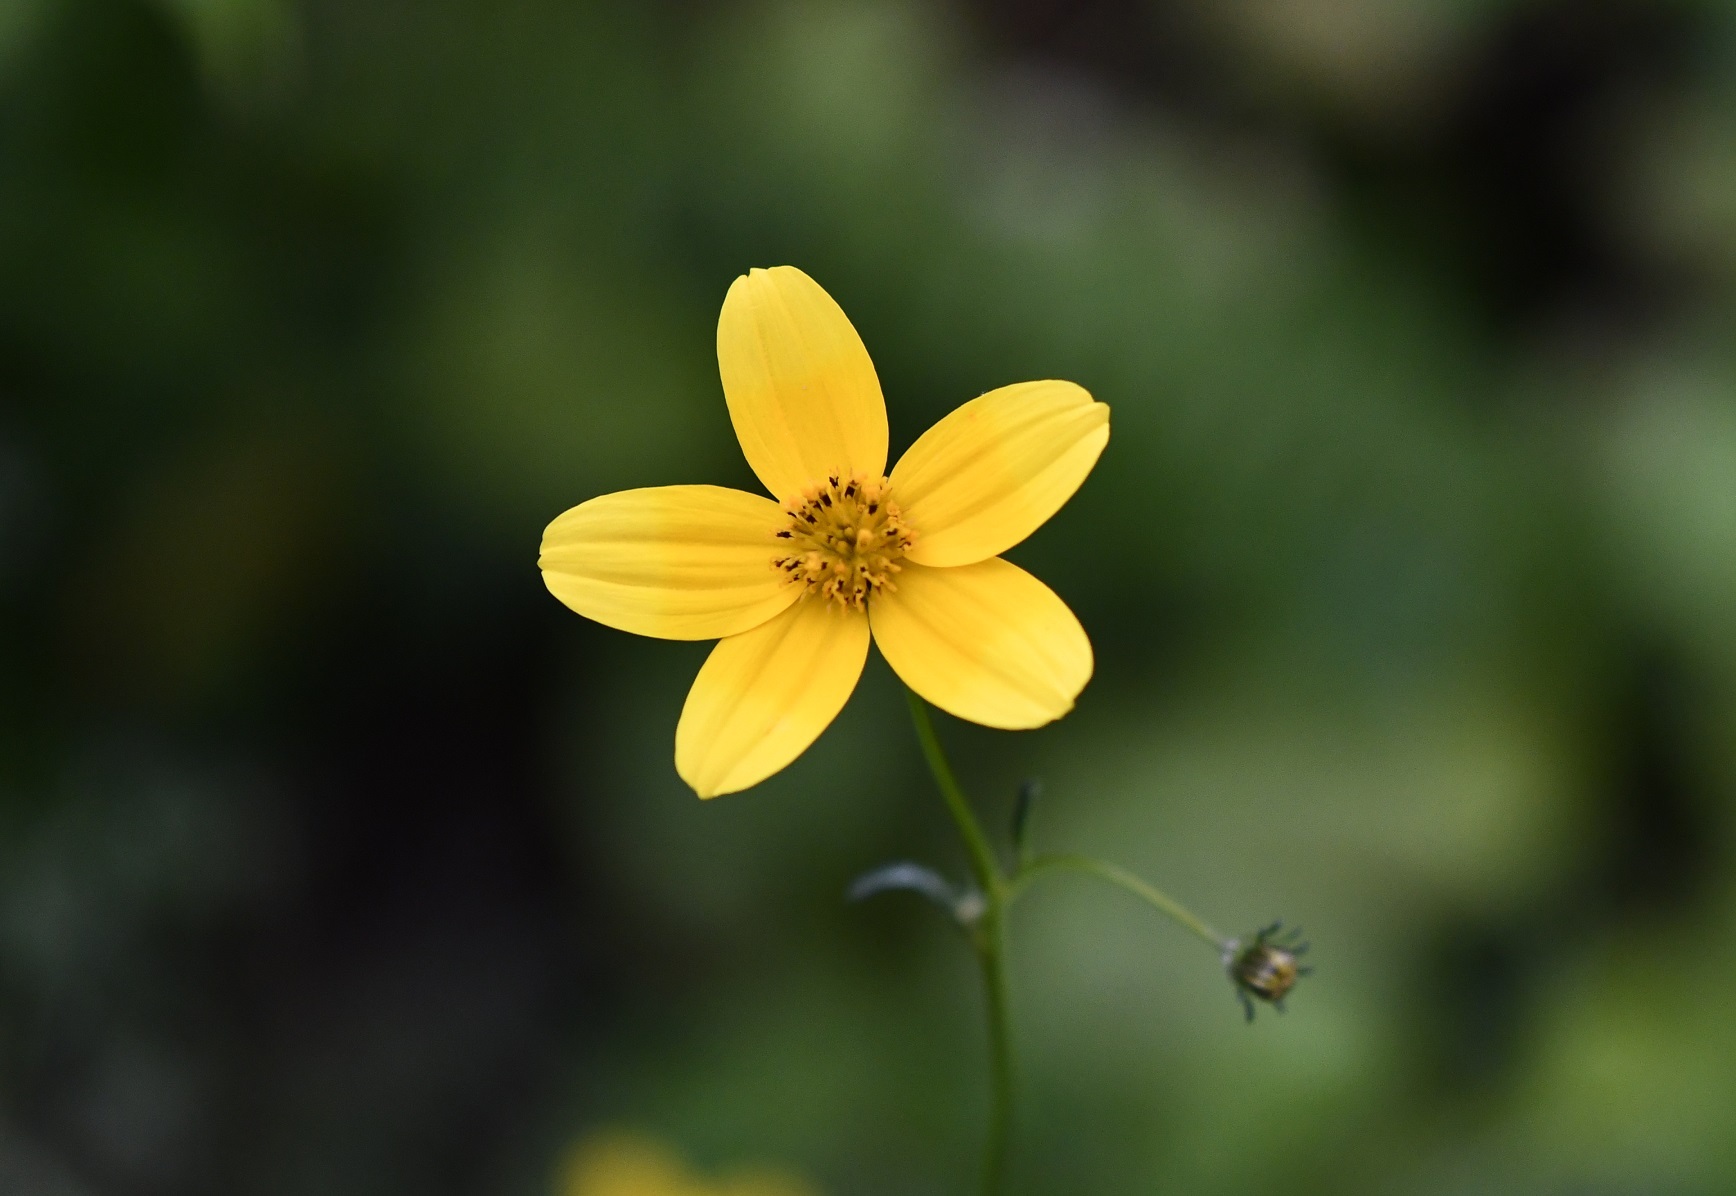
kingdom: Plantae
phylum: Tracheophyta
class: Magnoliopsida
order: Asterales
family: Asteraceae
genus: Bidens
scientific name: Bidens triplinervia
